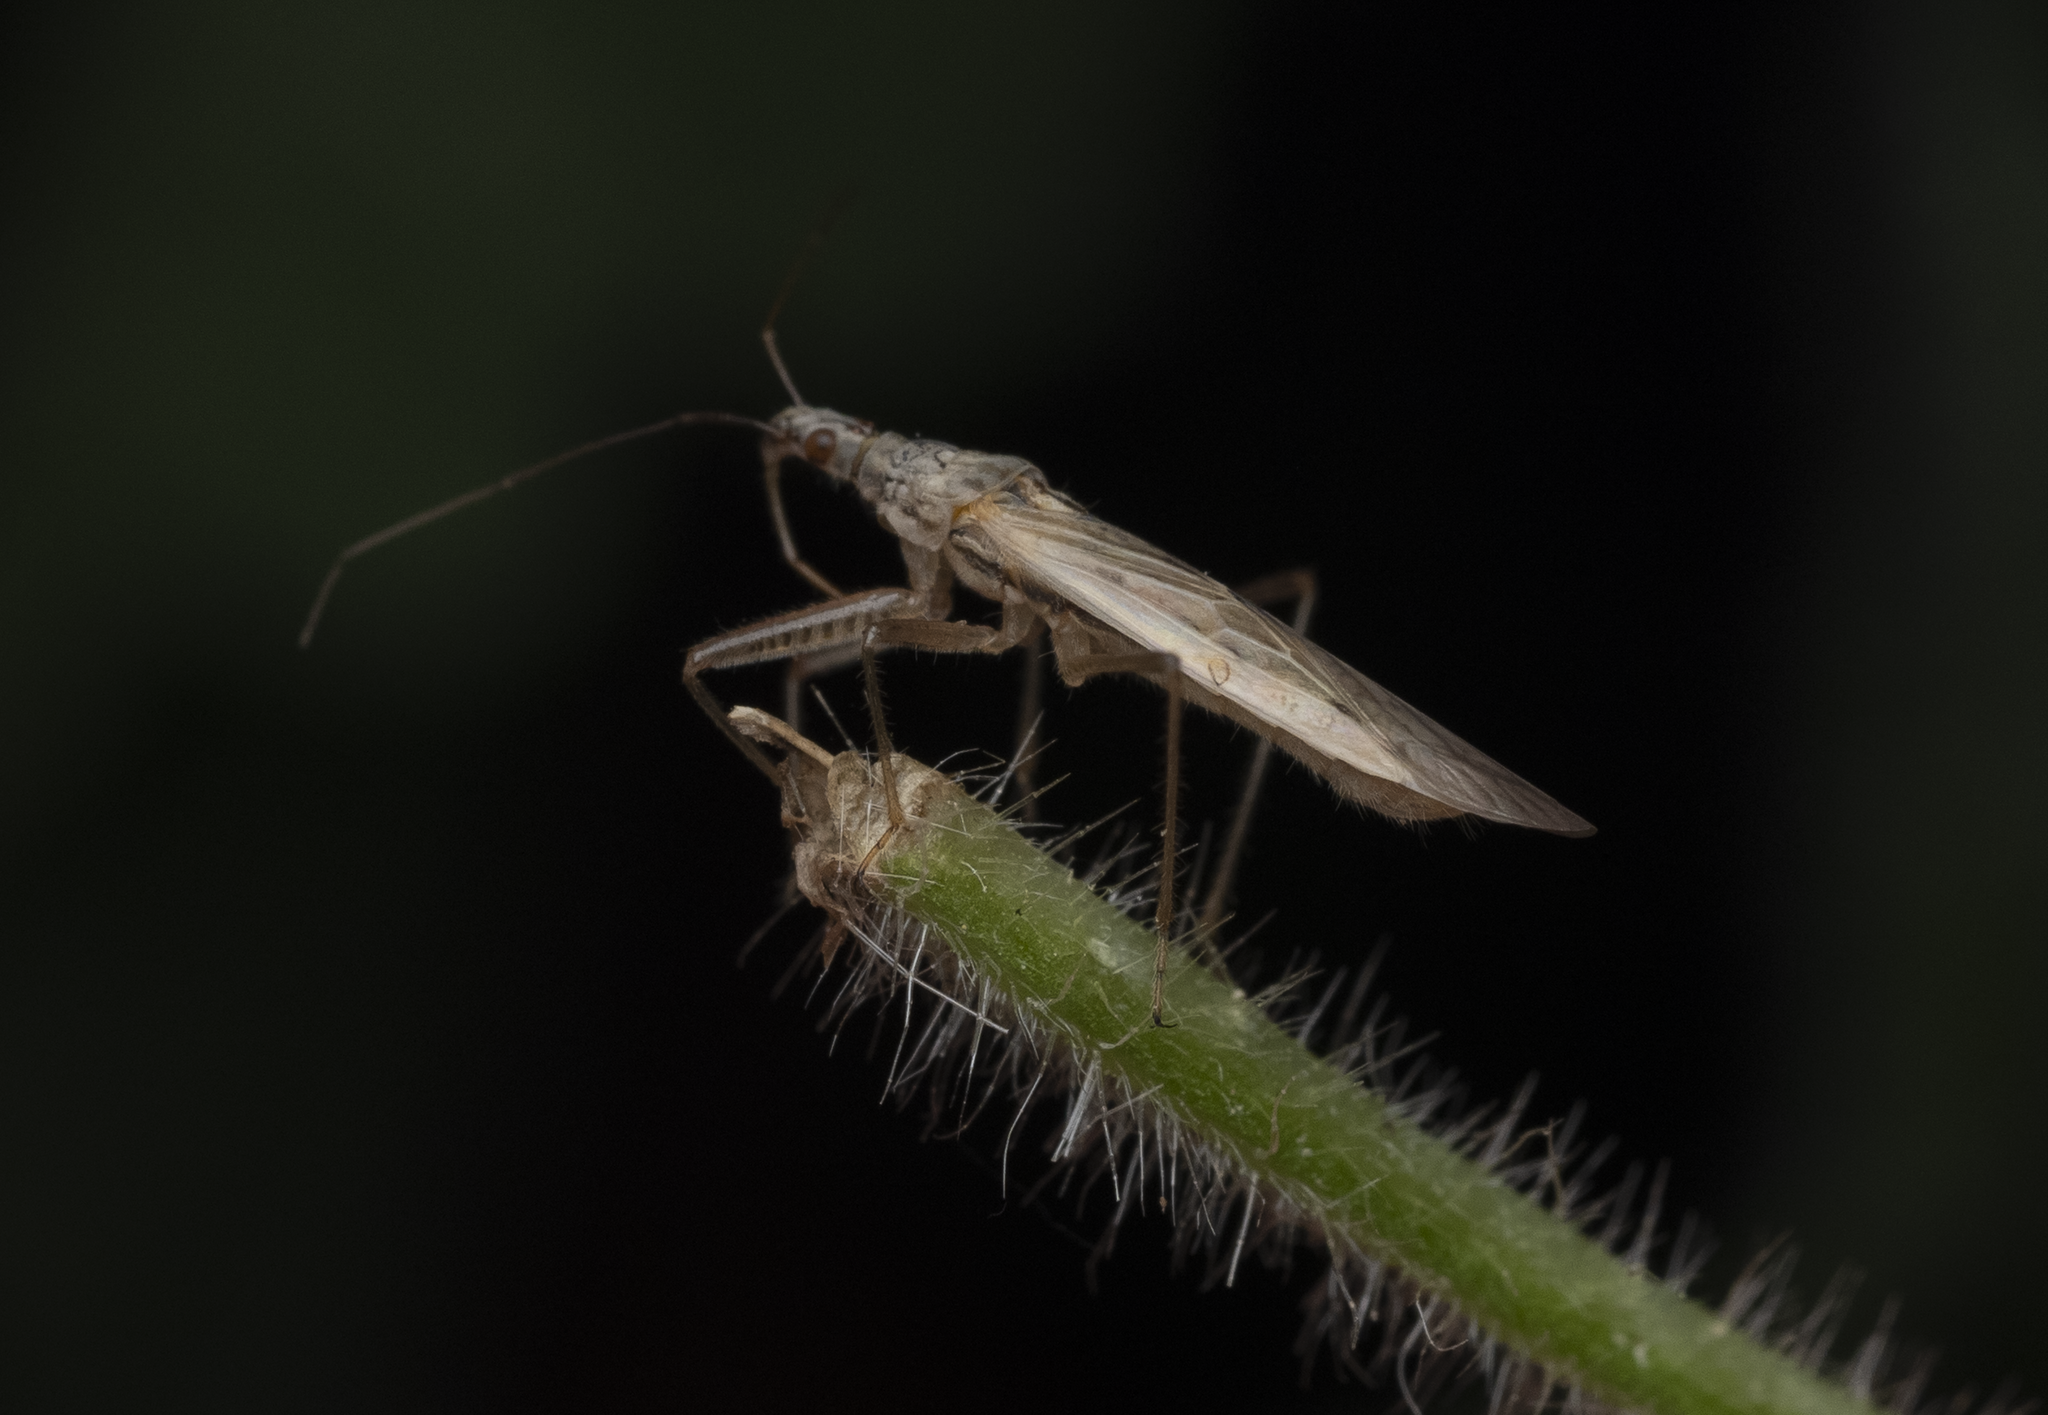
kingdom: Animalia
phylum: Arthropoda
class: Insecta
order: Hemiptera
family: Nabidae
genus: Nabis
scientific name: Nabis kinbergii
